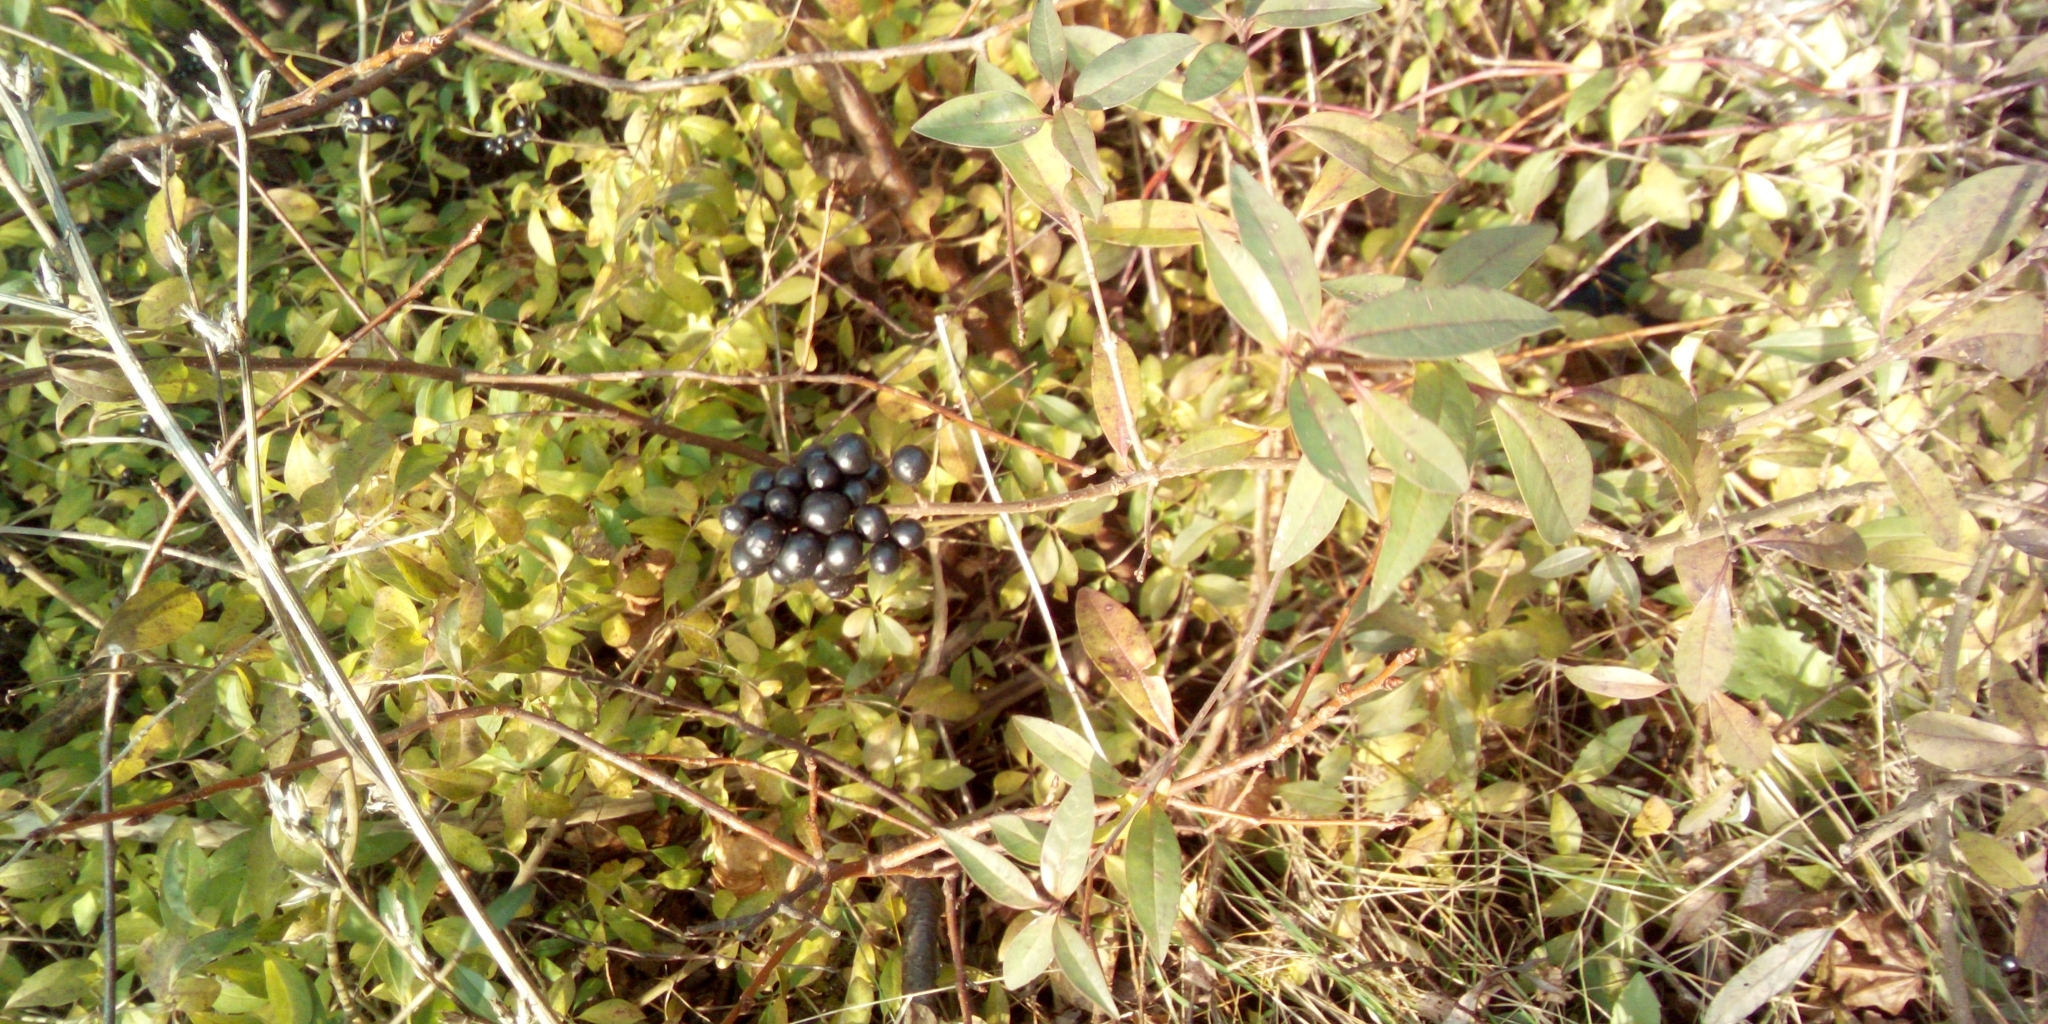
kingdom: Plantae
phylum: Tracheophyta
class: Magnoliopsida
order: Lamiales
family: Oleaceae
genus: Ligustrum
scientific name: Ligustrum vulgare
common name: Wild privet
